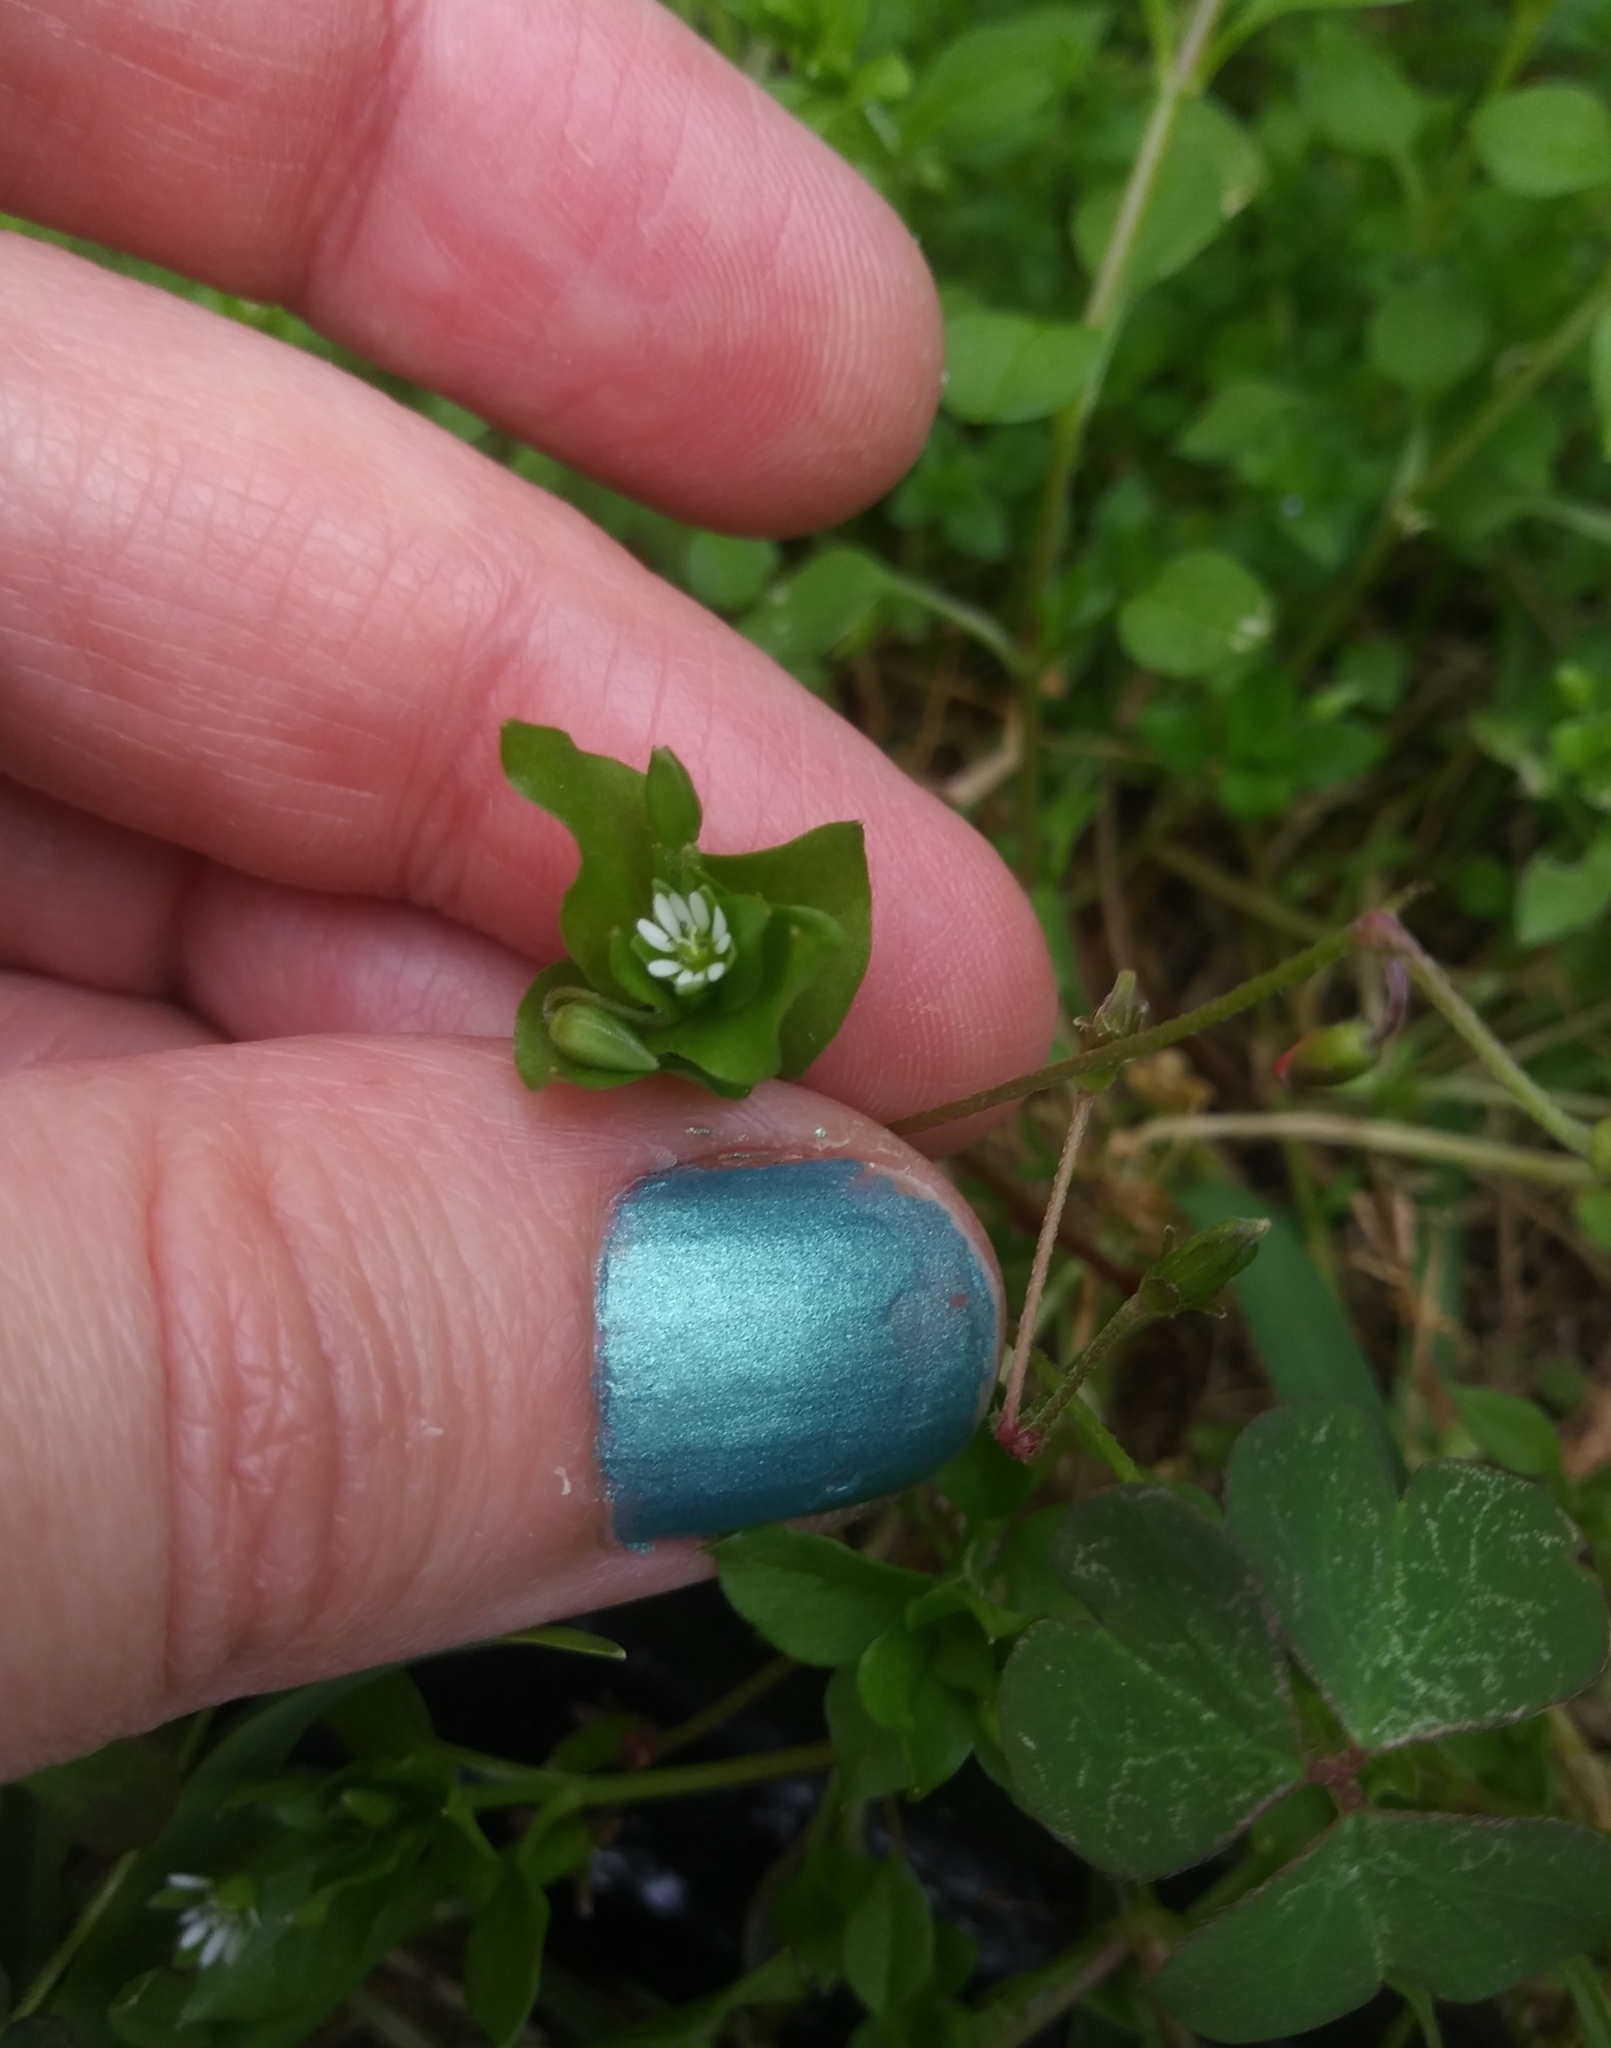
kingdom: Plantae
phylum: Tracheophyta
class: Magnoliopsida
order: Caryophyllales
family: Caryophyllaceae
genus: Stellaria
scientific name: Stellaria media
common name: Common chickweed
